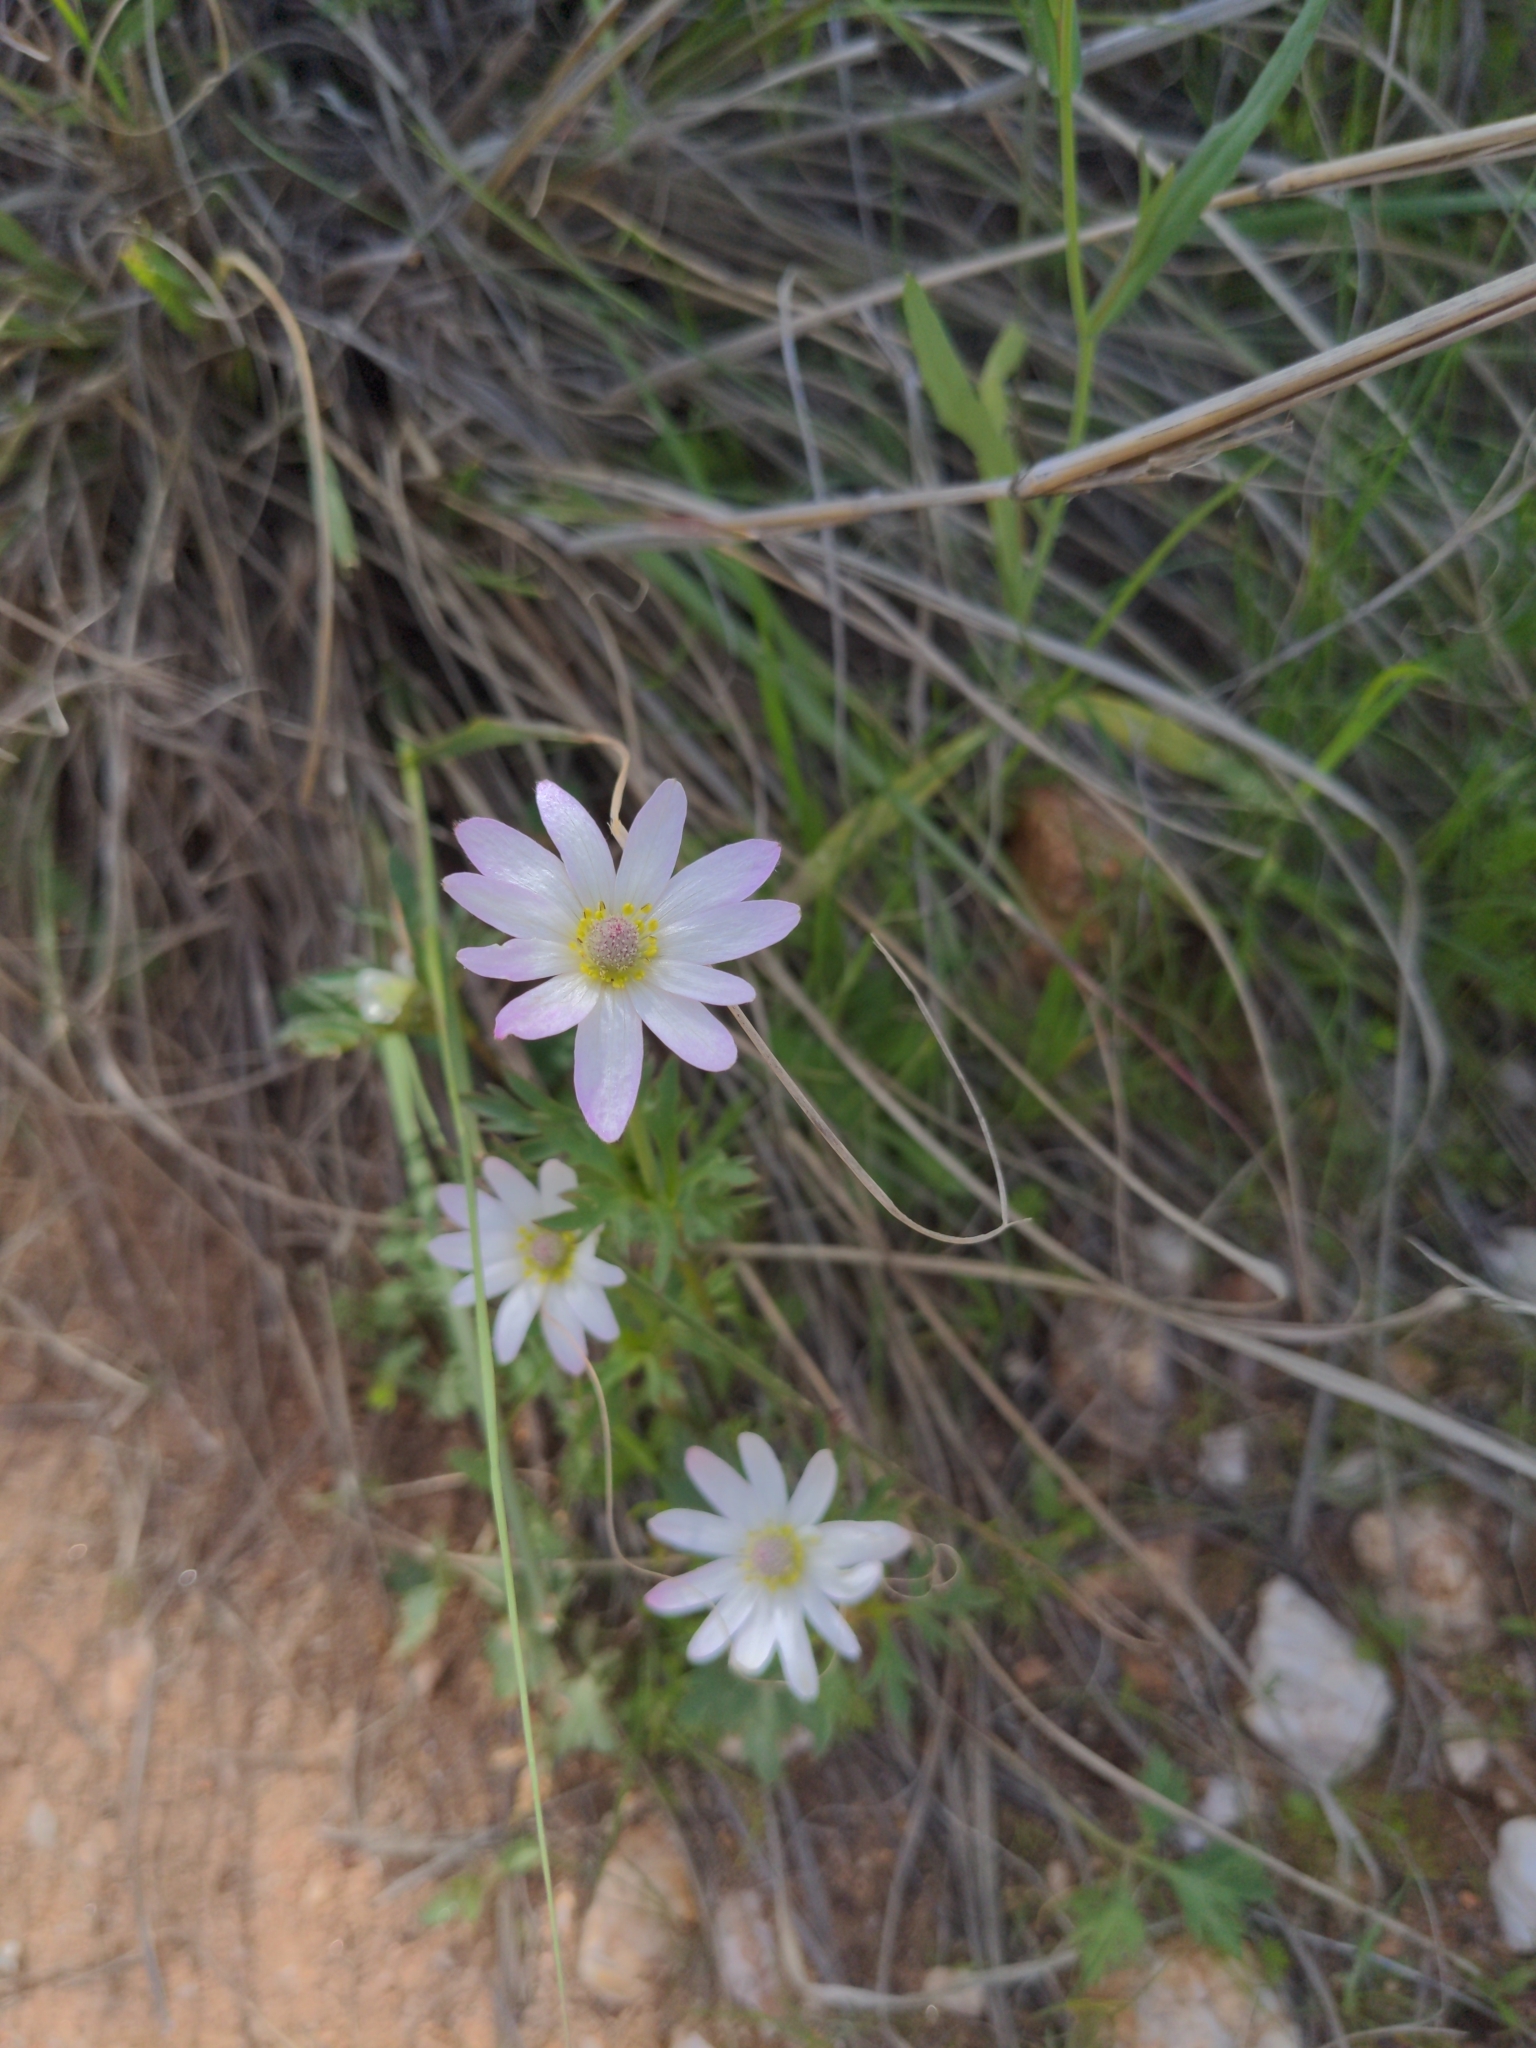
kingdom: Plantae
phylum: Tracheophyta
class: Magnoliopsida
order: Ranunculales
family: Ranunculaceae
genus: Anemone
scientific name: Anemone tuberosa
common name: Desert anemone
